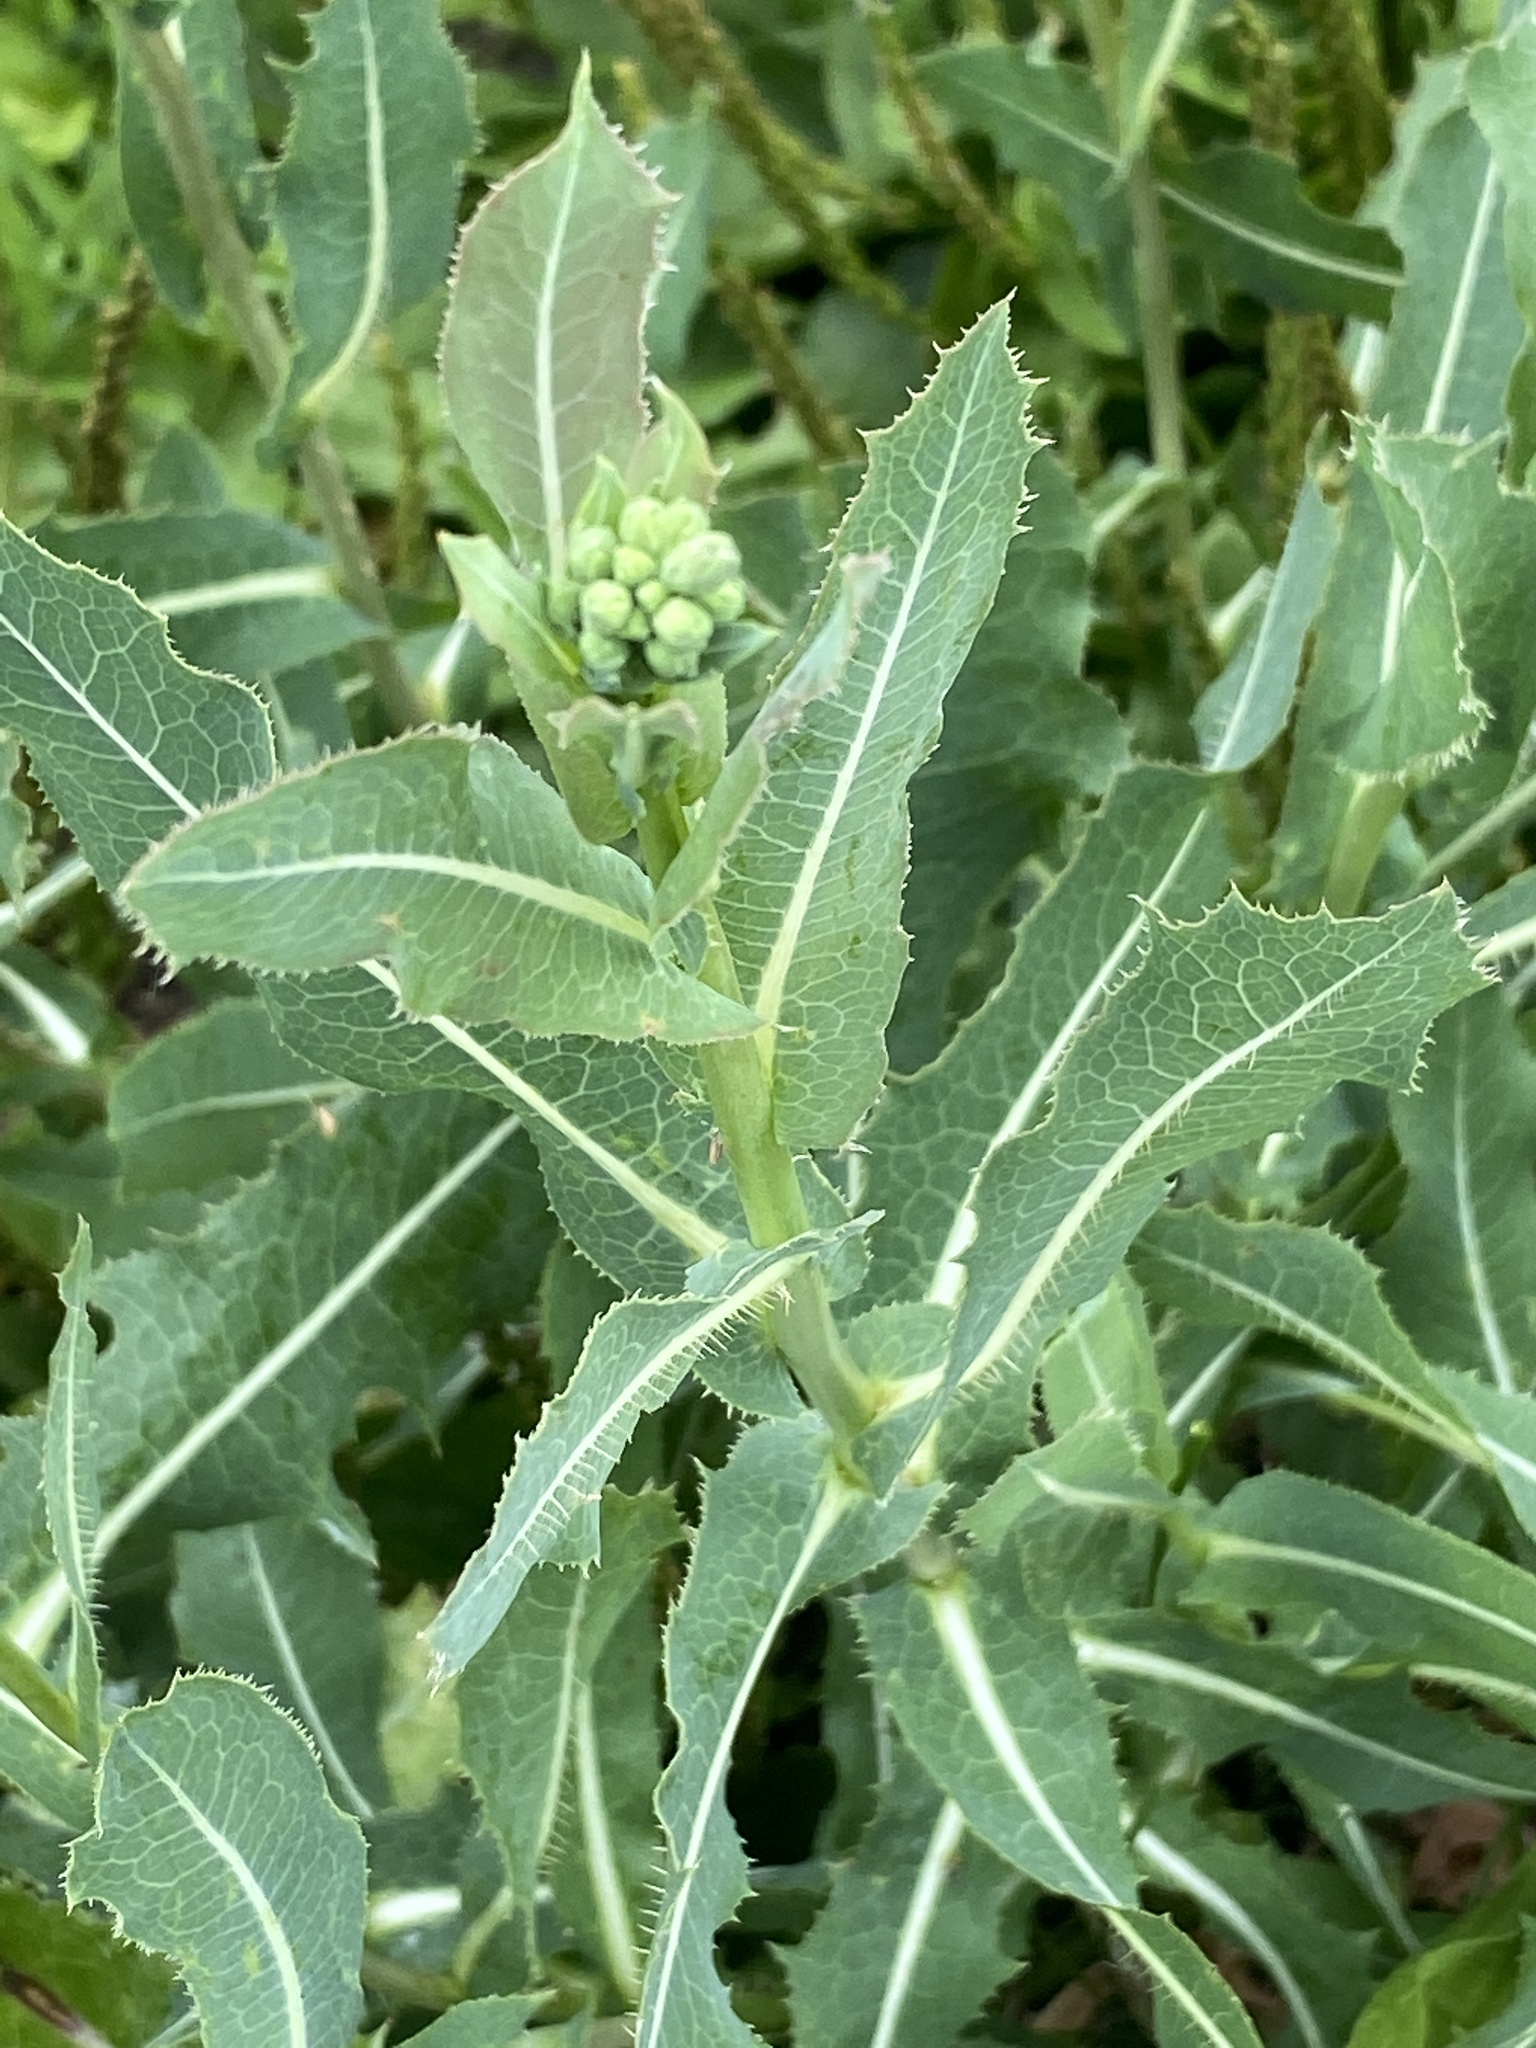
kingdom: Plantae
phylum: Tracheophyta
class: Magnoliopsida
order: Asterales
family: Asteraceae
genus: Lactuca
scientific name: Lactuca serriola
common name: Prickly lettuce
